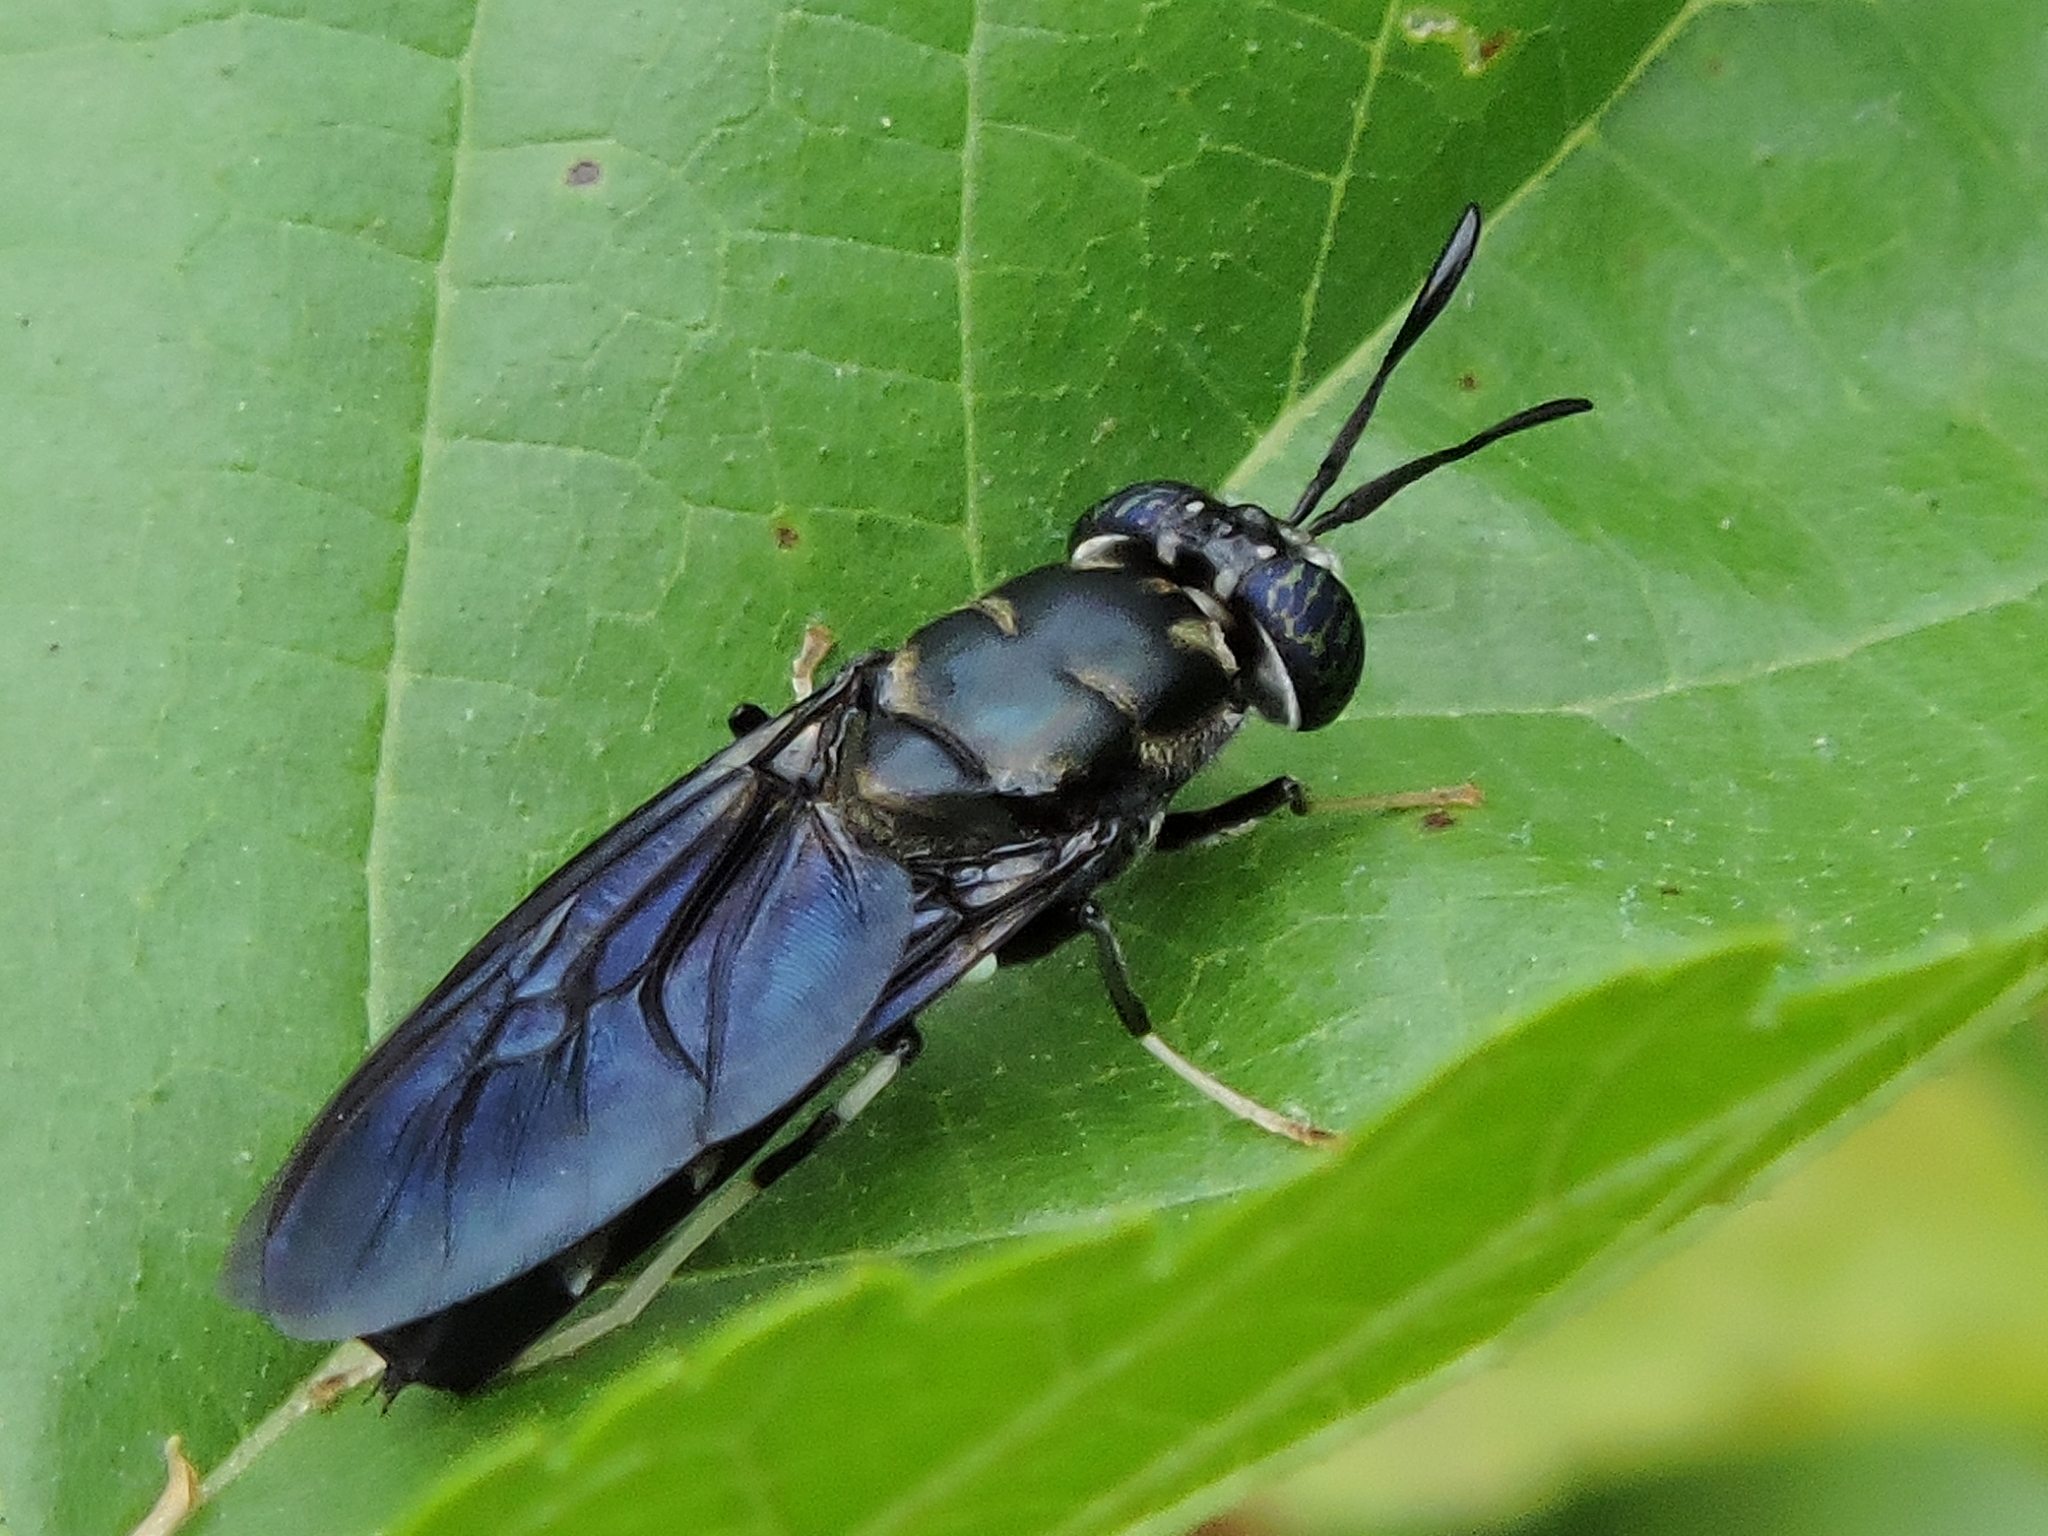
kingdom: Animalia
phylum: Arthropoda
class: Insecta
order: Diptera
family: Stratiomyidae
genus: Hermetia
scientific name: Hermetia illucens
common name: Black soldier fly
